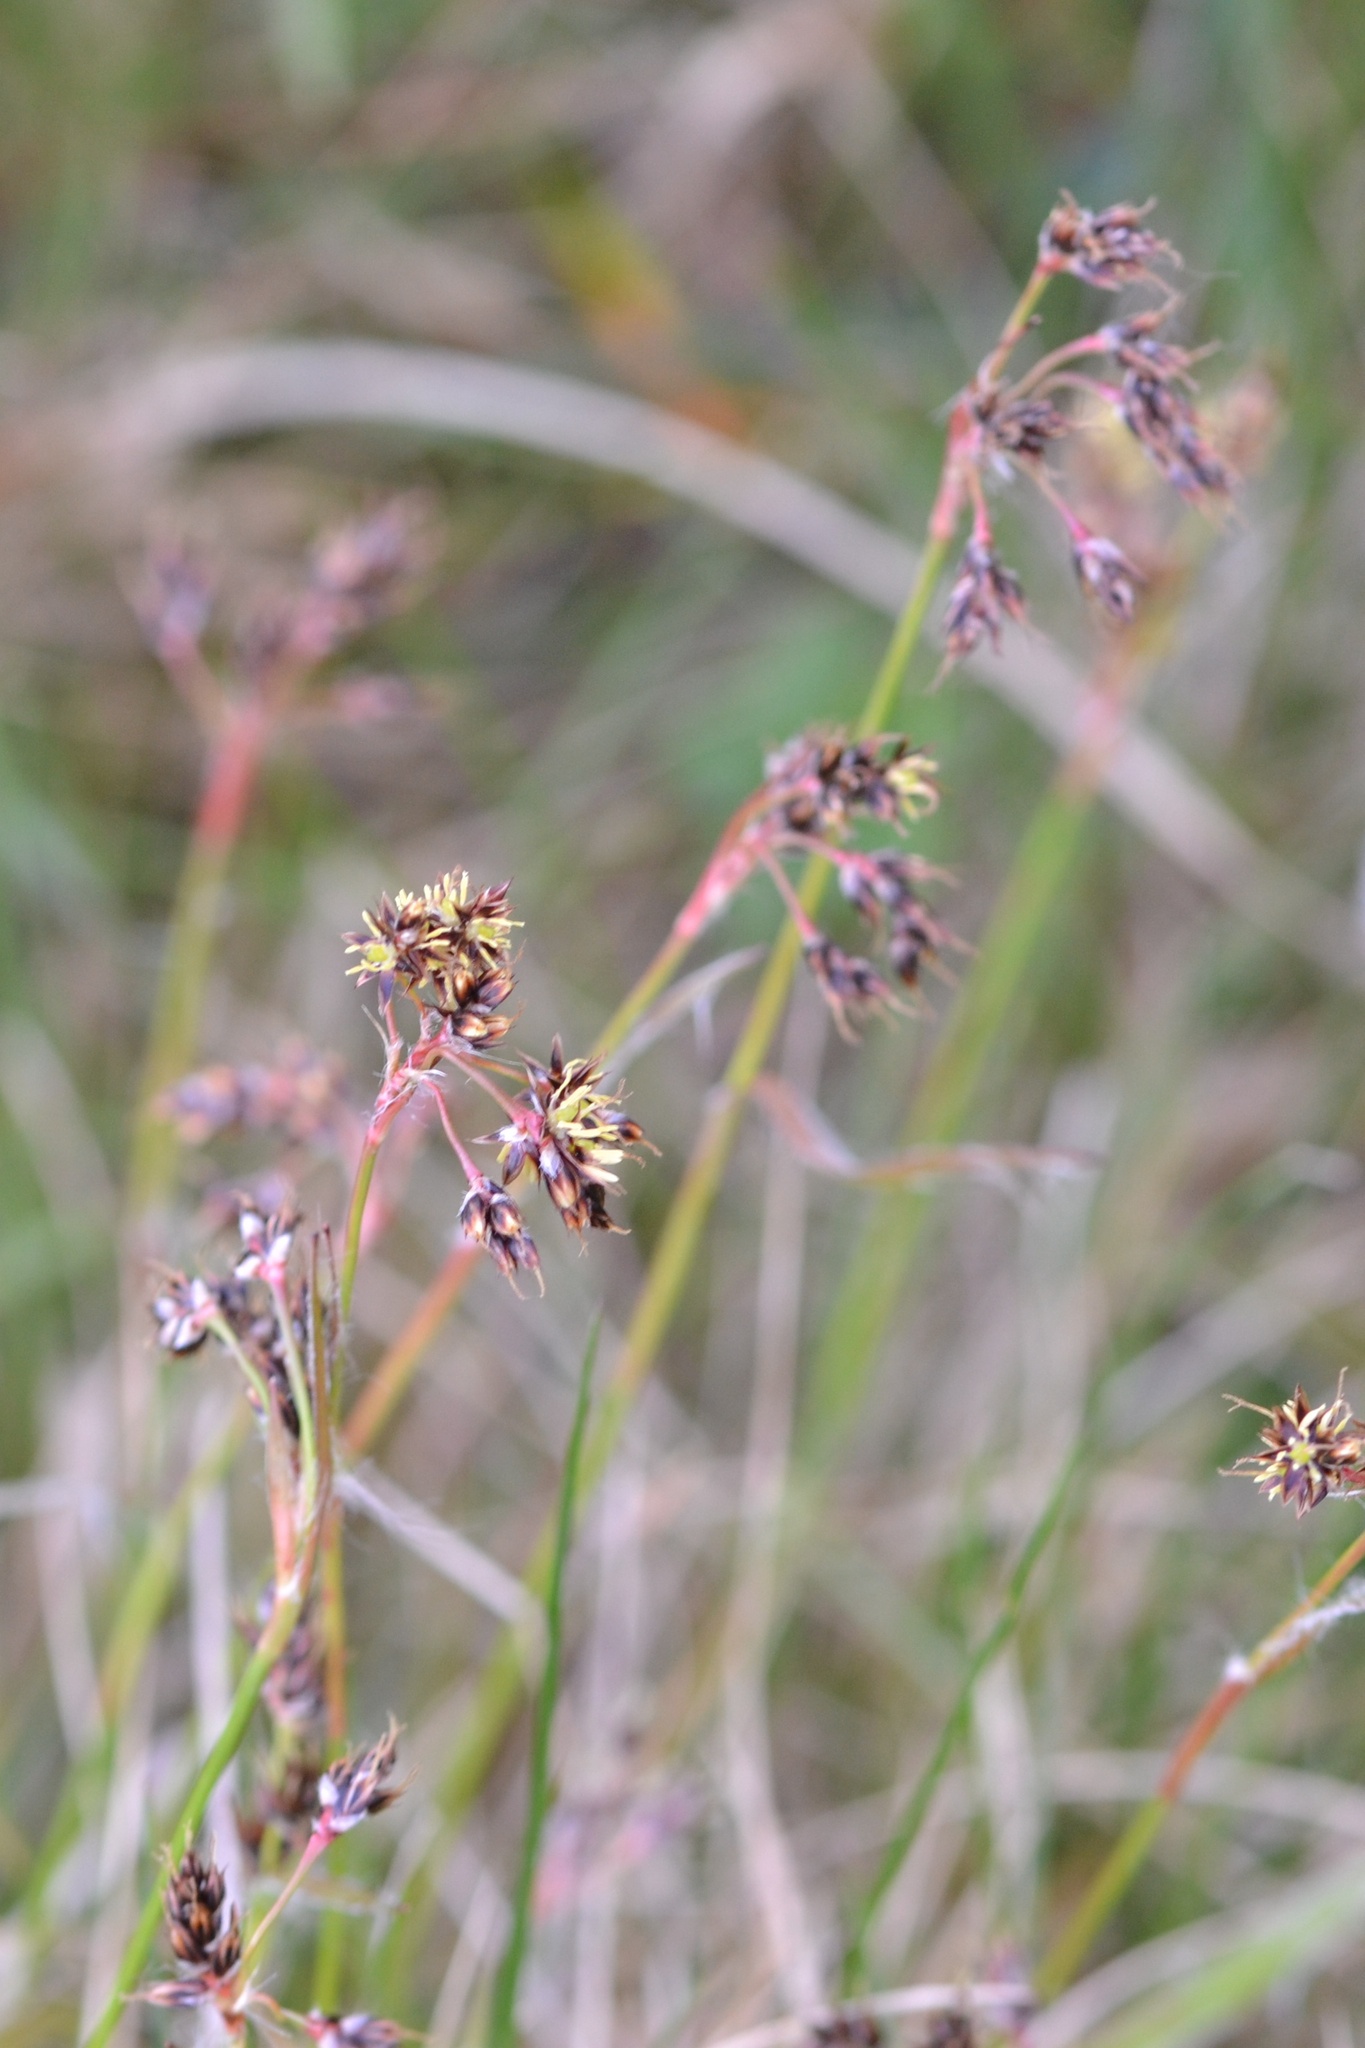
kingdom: Plantae
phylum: Tracheophyta
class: Liliopsida
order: Poales
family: Juncaceae
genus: Luzula
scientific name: Luzula campestris
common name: Field wood-rush
